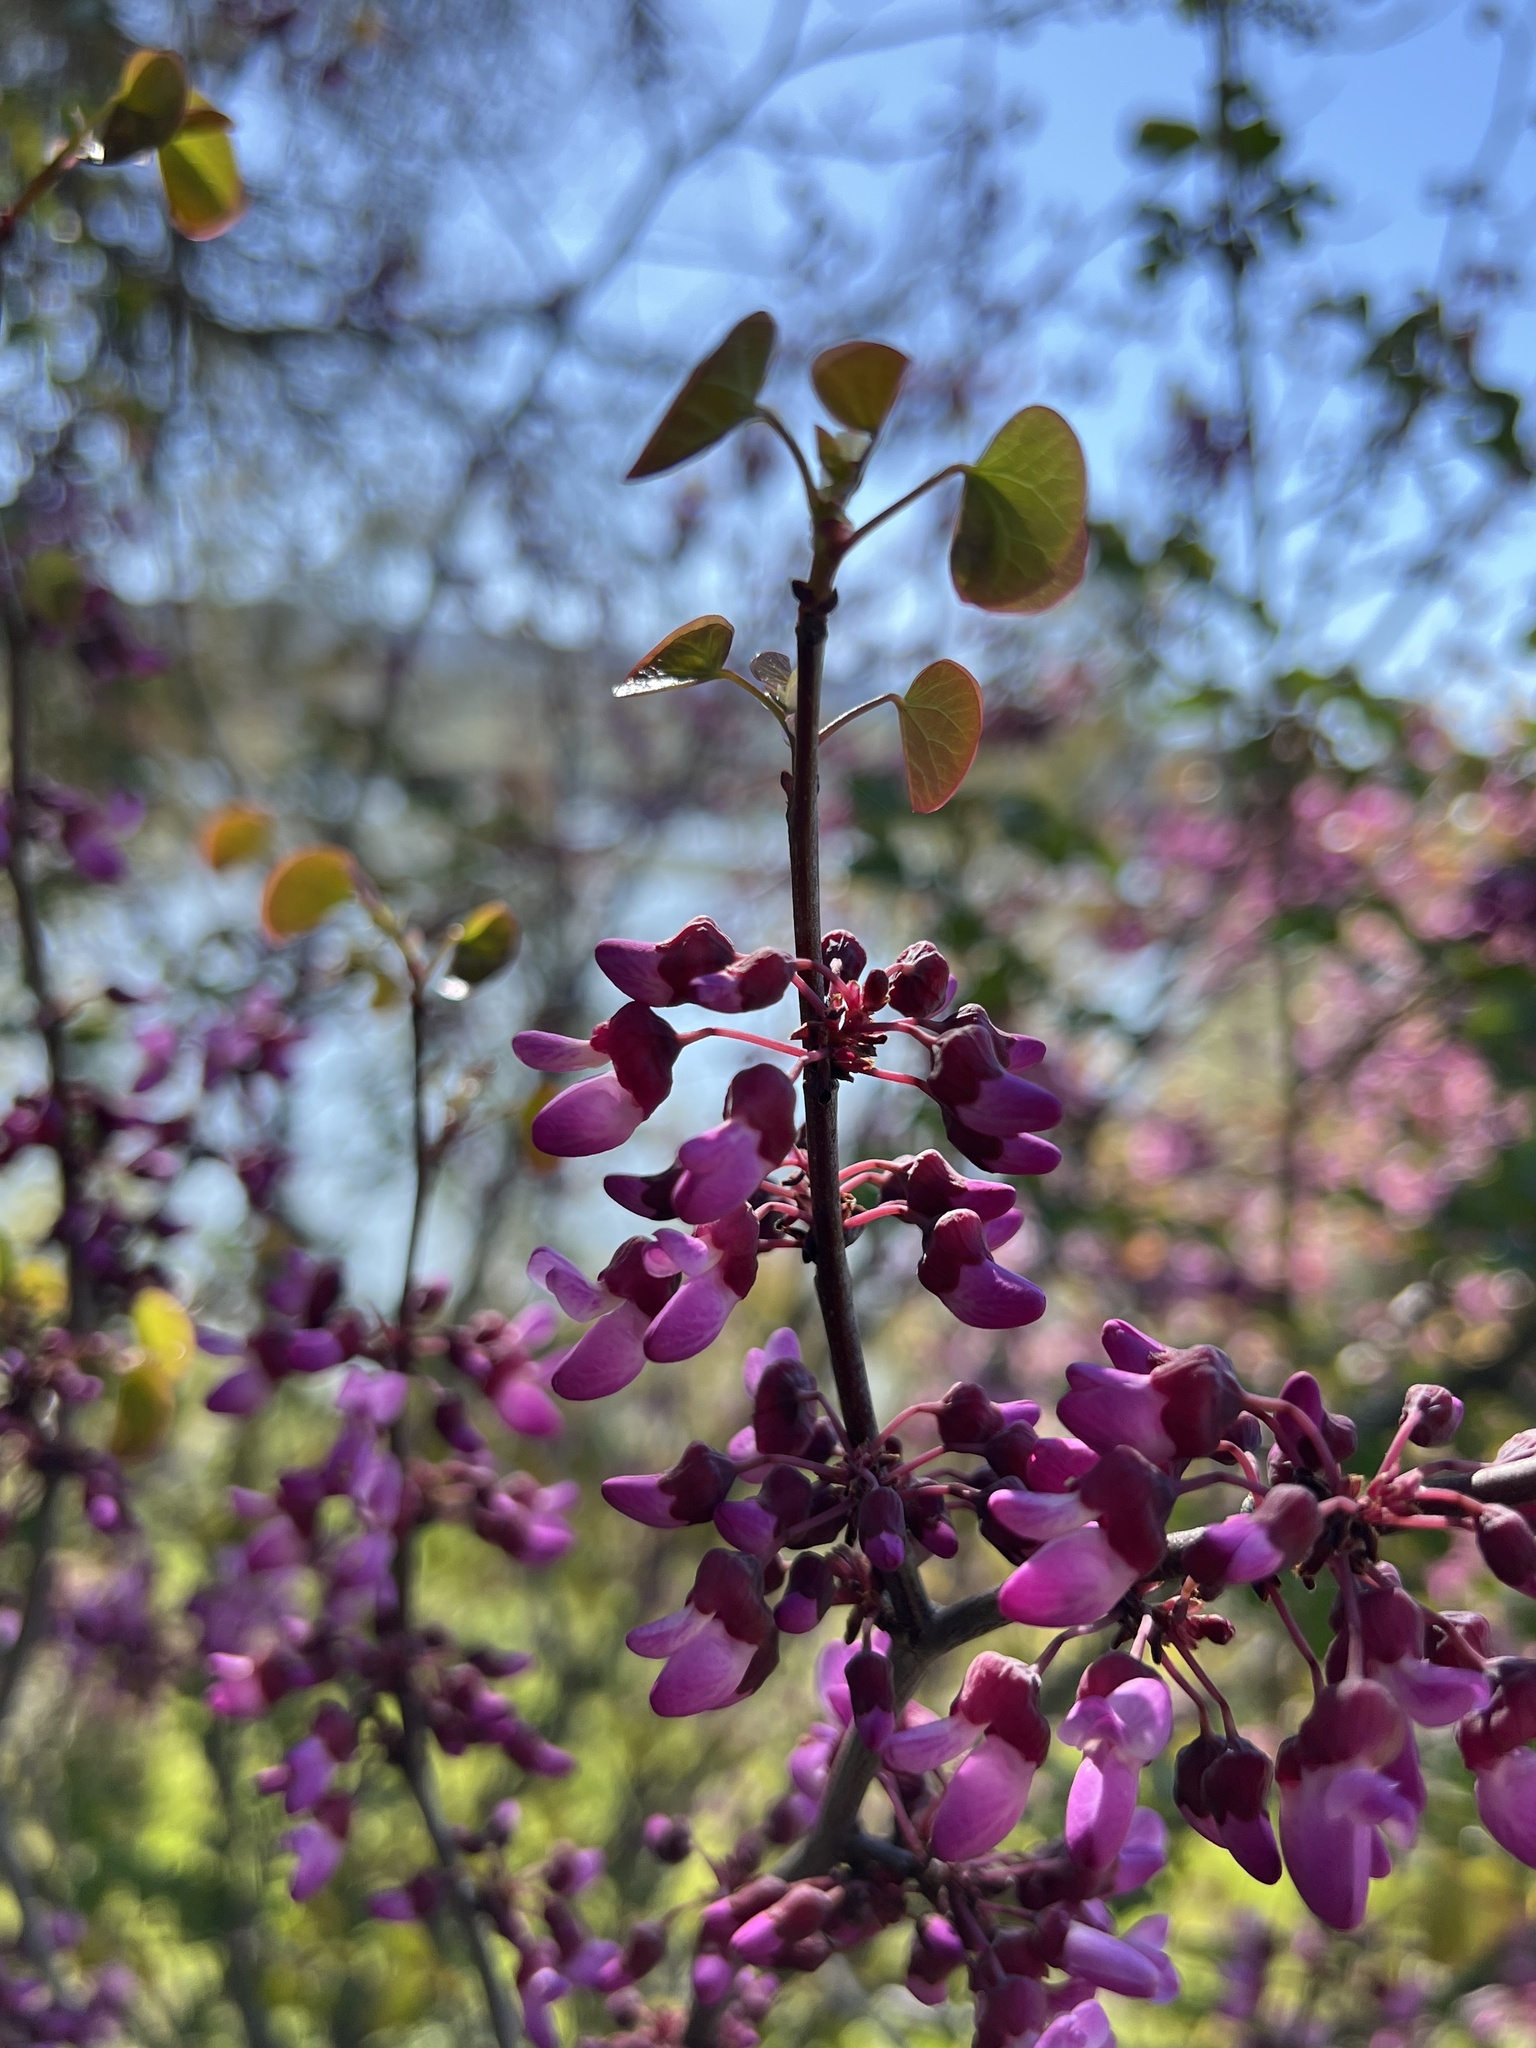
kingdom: Plantae
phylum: Tracheophyta
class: Magnoliopsida
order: Fabales
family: Fabaceae
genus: Cercis
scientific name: Cercis occidentalis
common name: California redbud
